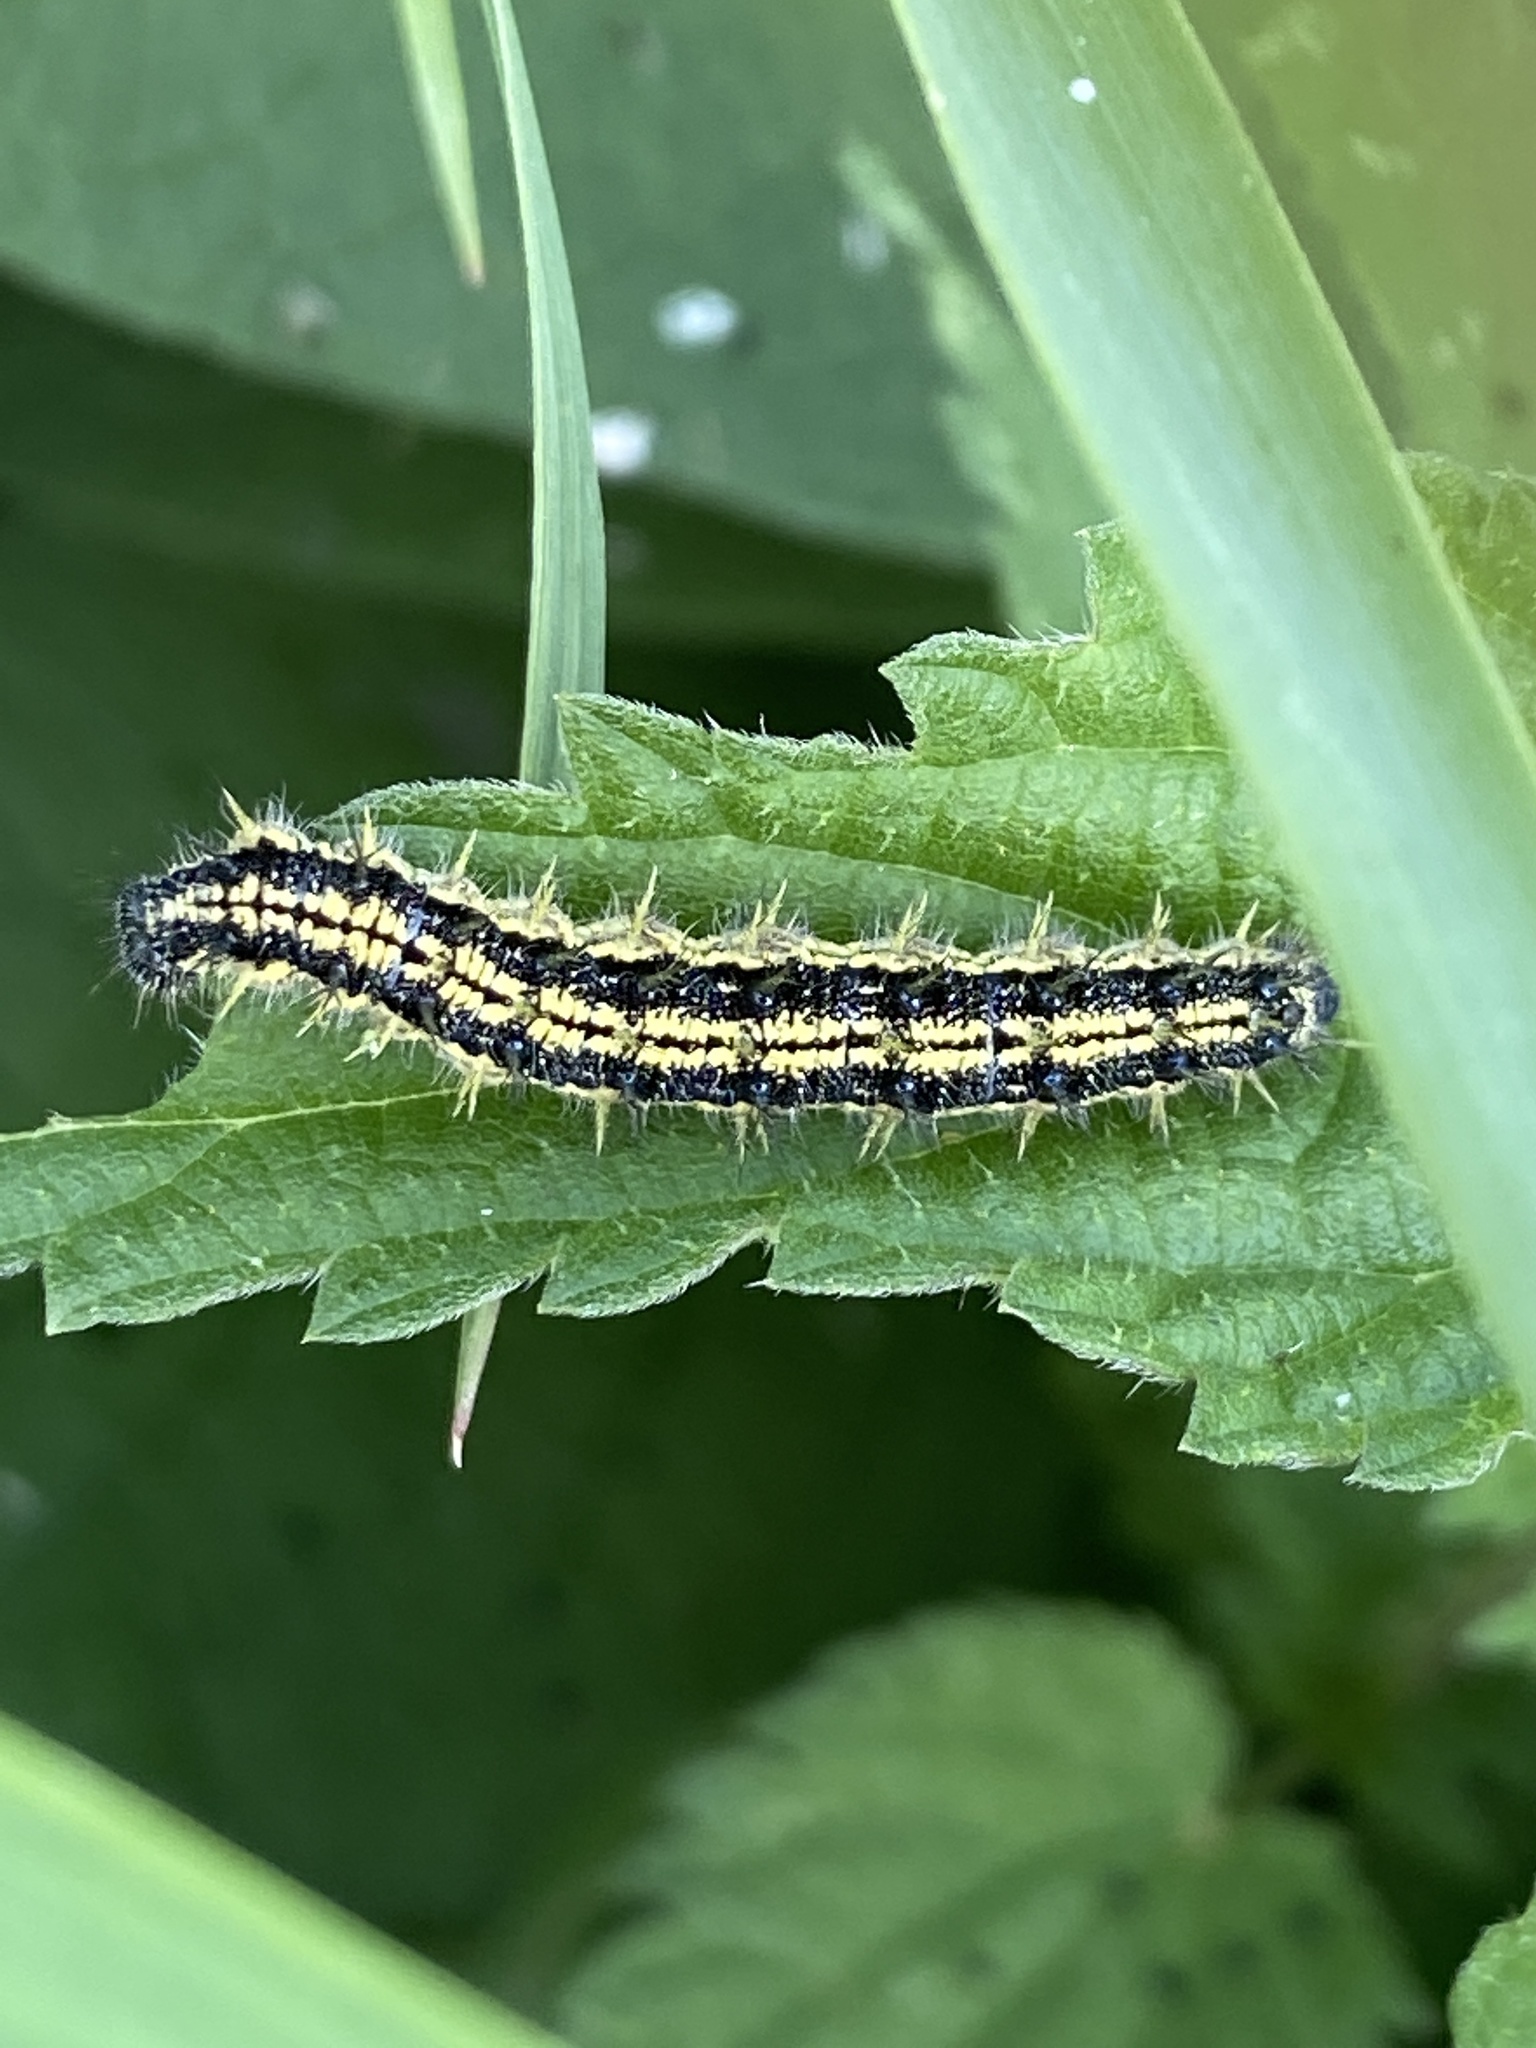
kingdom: Animalia
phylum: Arthropoda
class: Insecta
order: Lepidoptera
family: Nymphalidae
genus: Aglais
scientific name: Aglais urticae
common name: Small tortoiseshell
